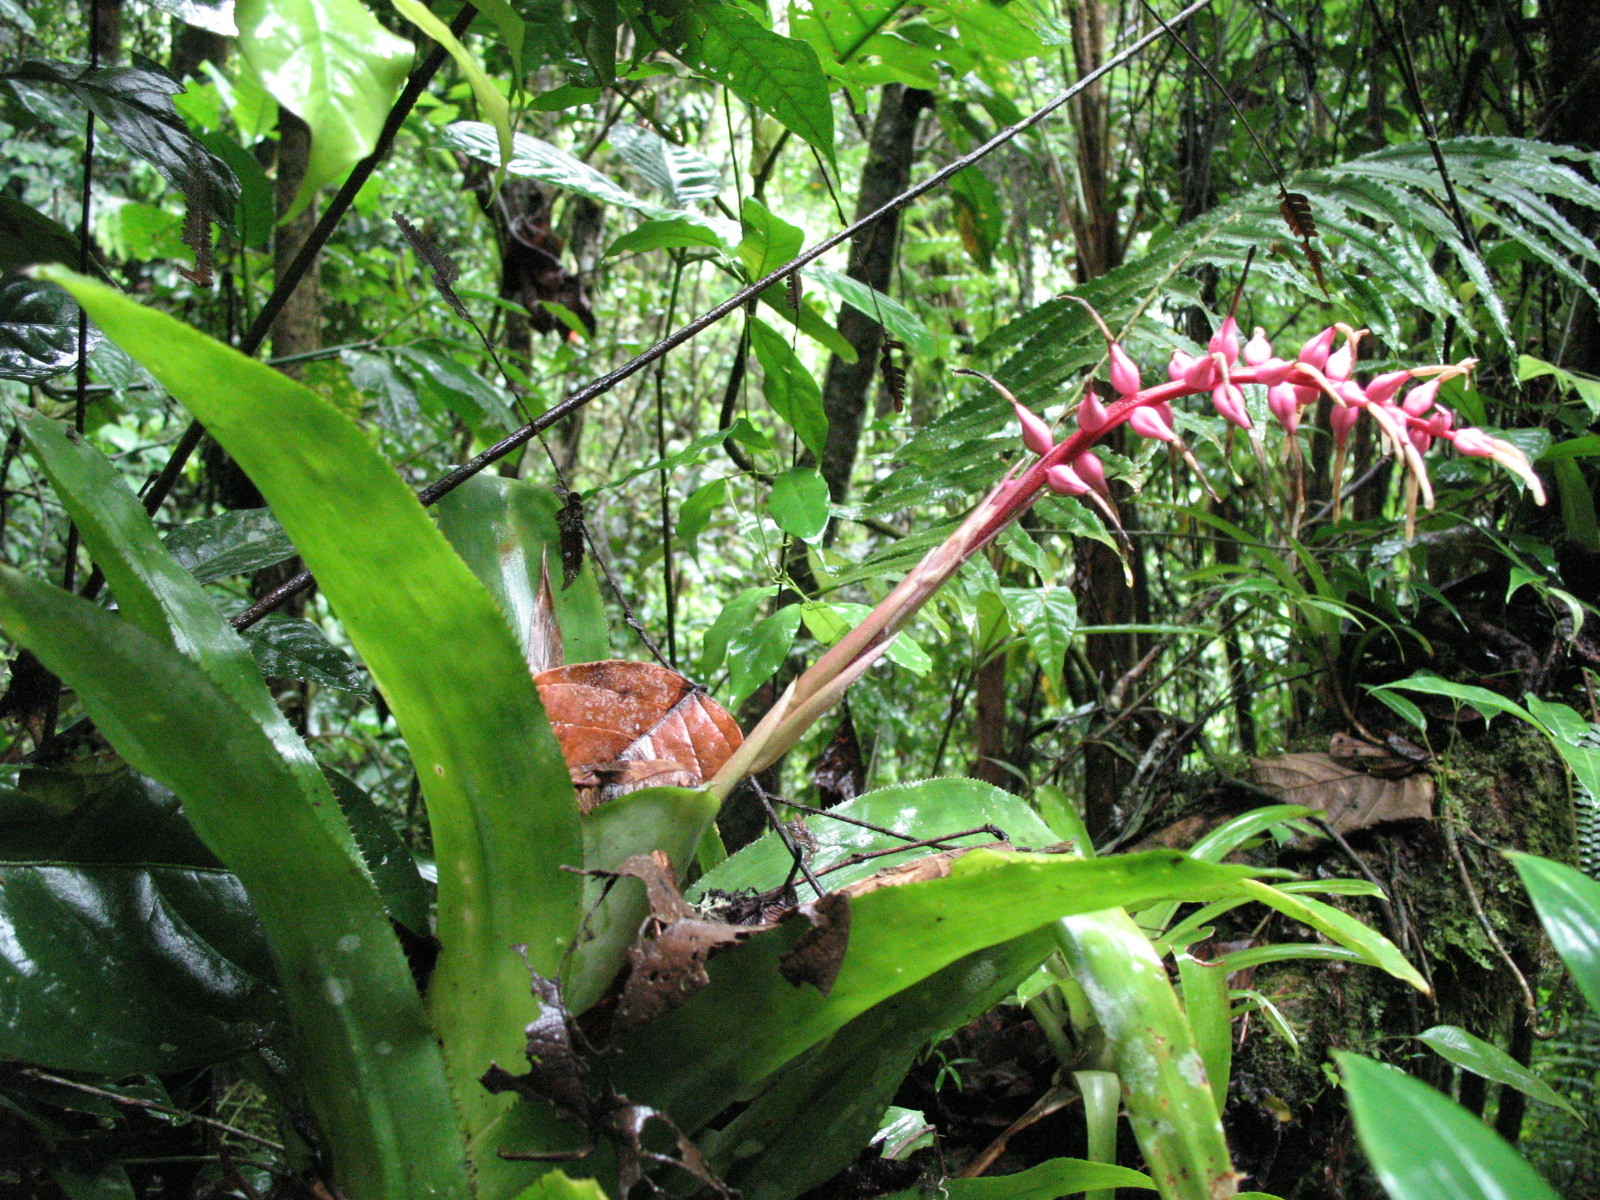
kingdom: Plantae
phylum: Tracheophyta
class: Liliopsida
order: Poales
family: Bromeliaceae
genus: Ronnbergia
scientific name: Ronnbergia drakeana
